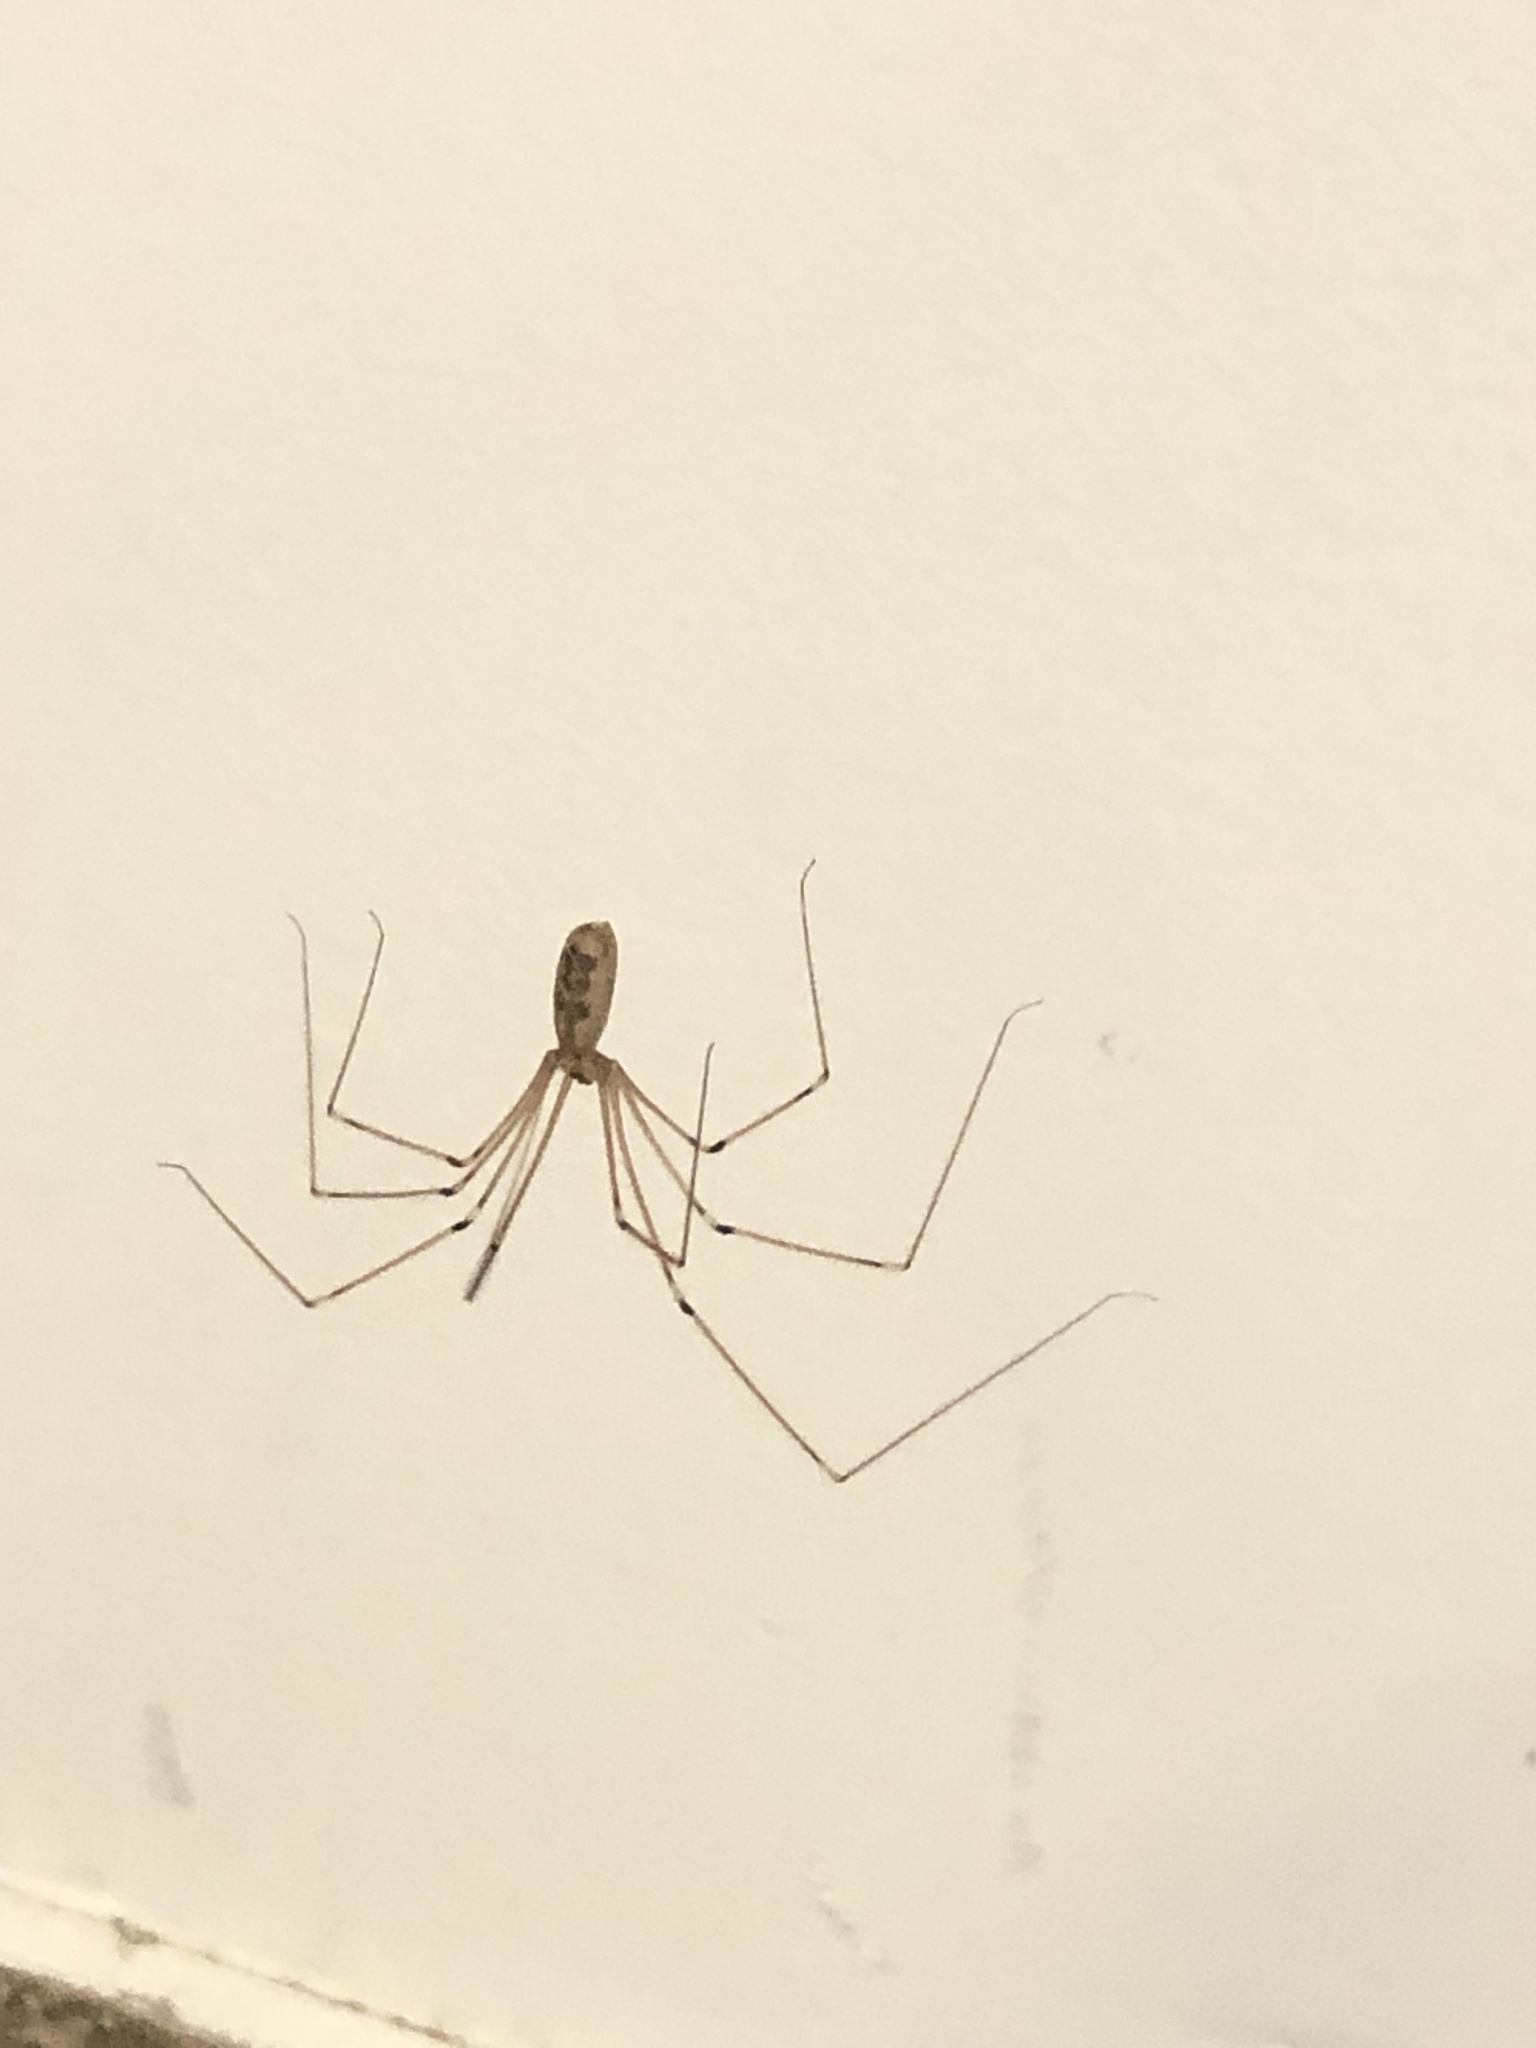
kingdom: Animalia
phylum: Arthropoda
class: Arachnida
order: Araneae
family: Pholcidae
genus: Pholcus
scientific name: Pholcus phalangioides
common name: Longbodied cellar spider
